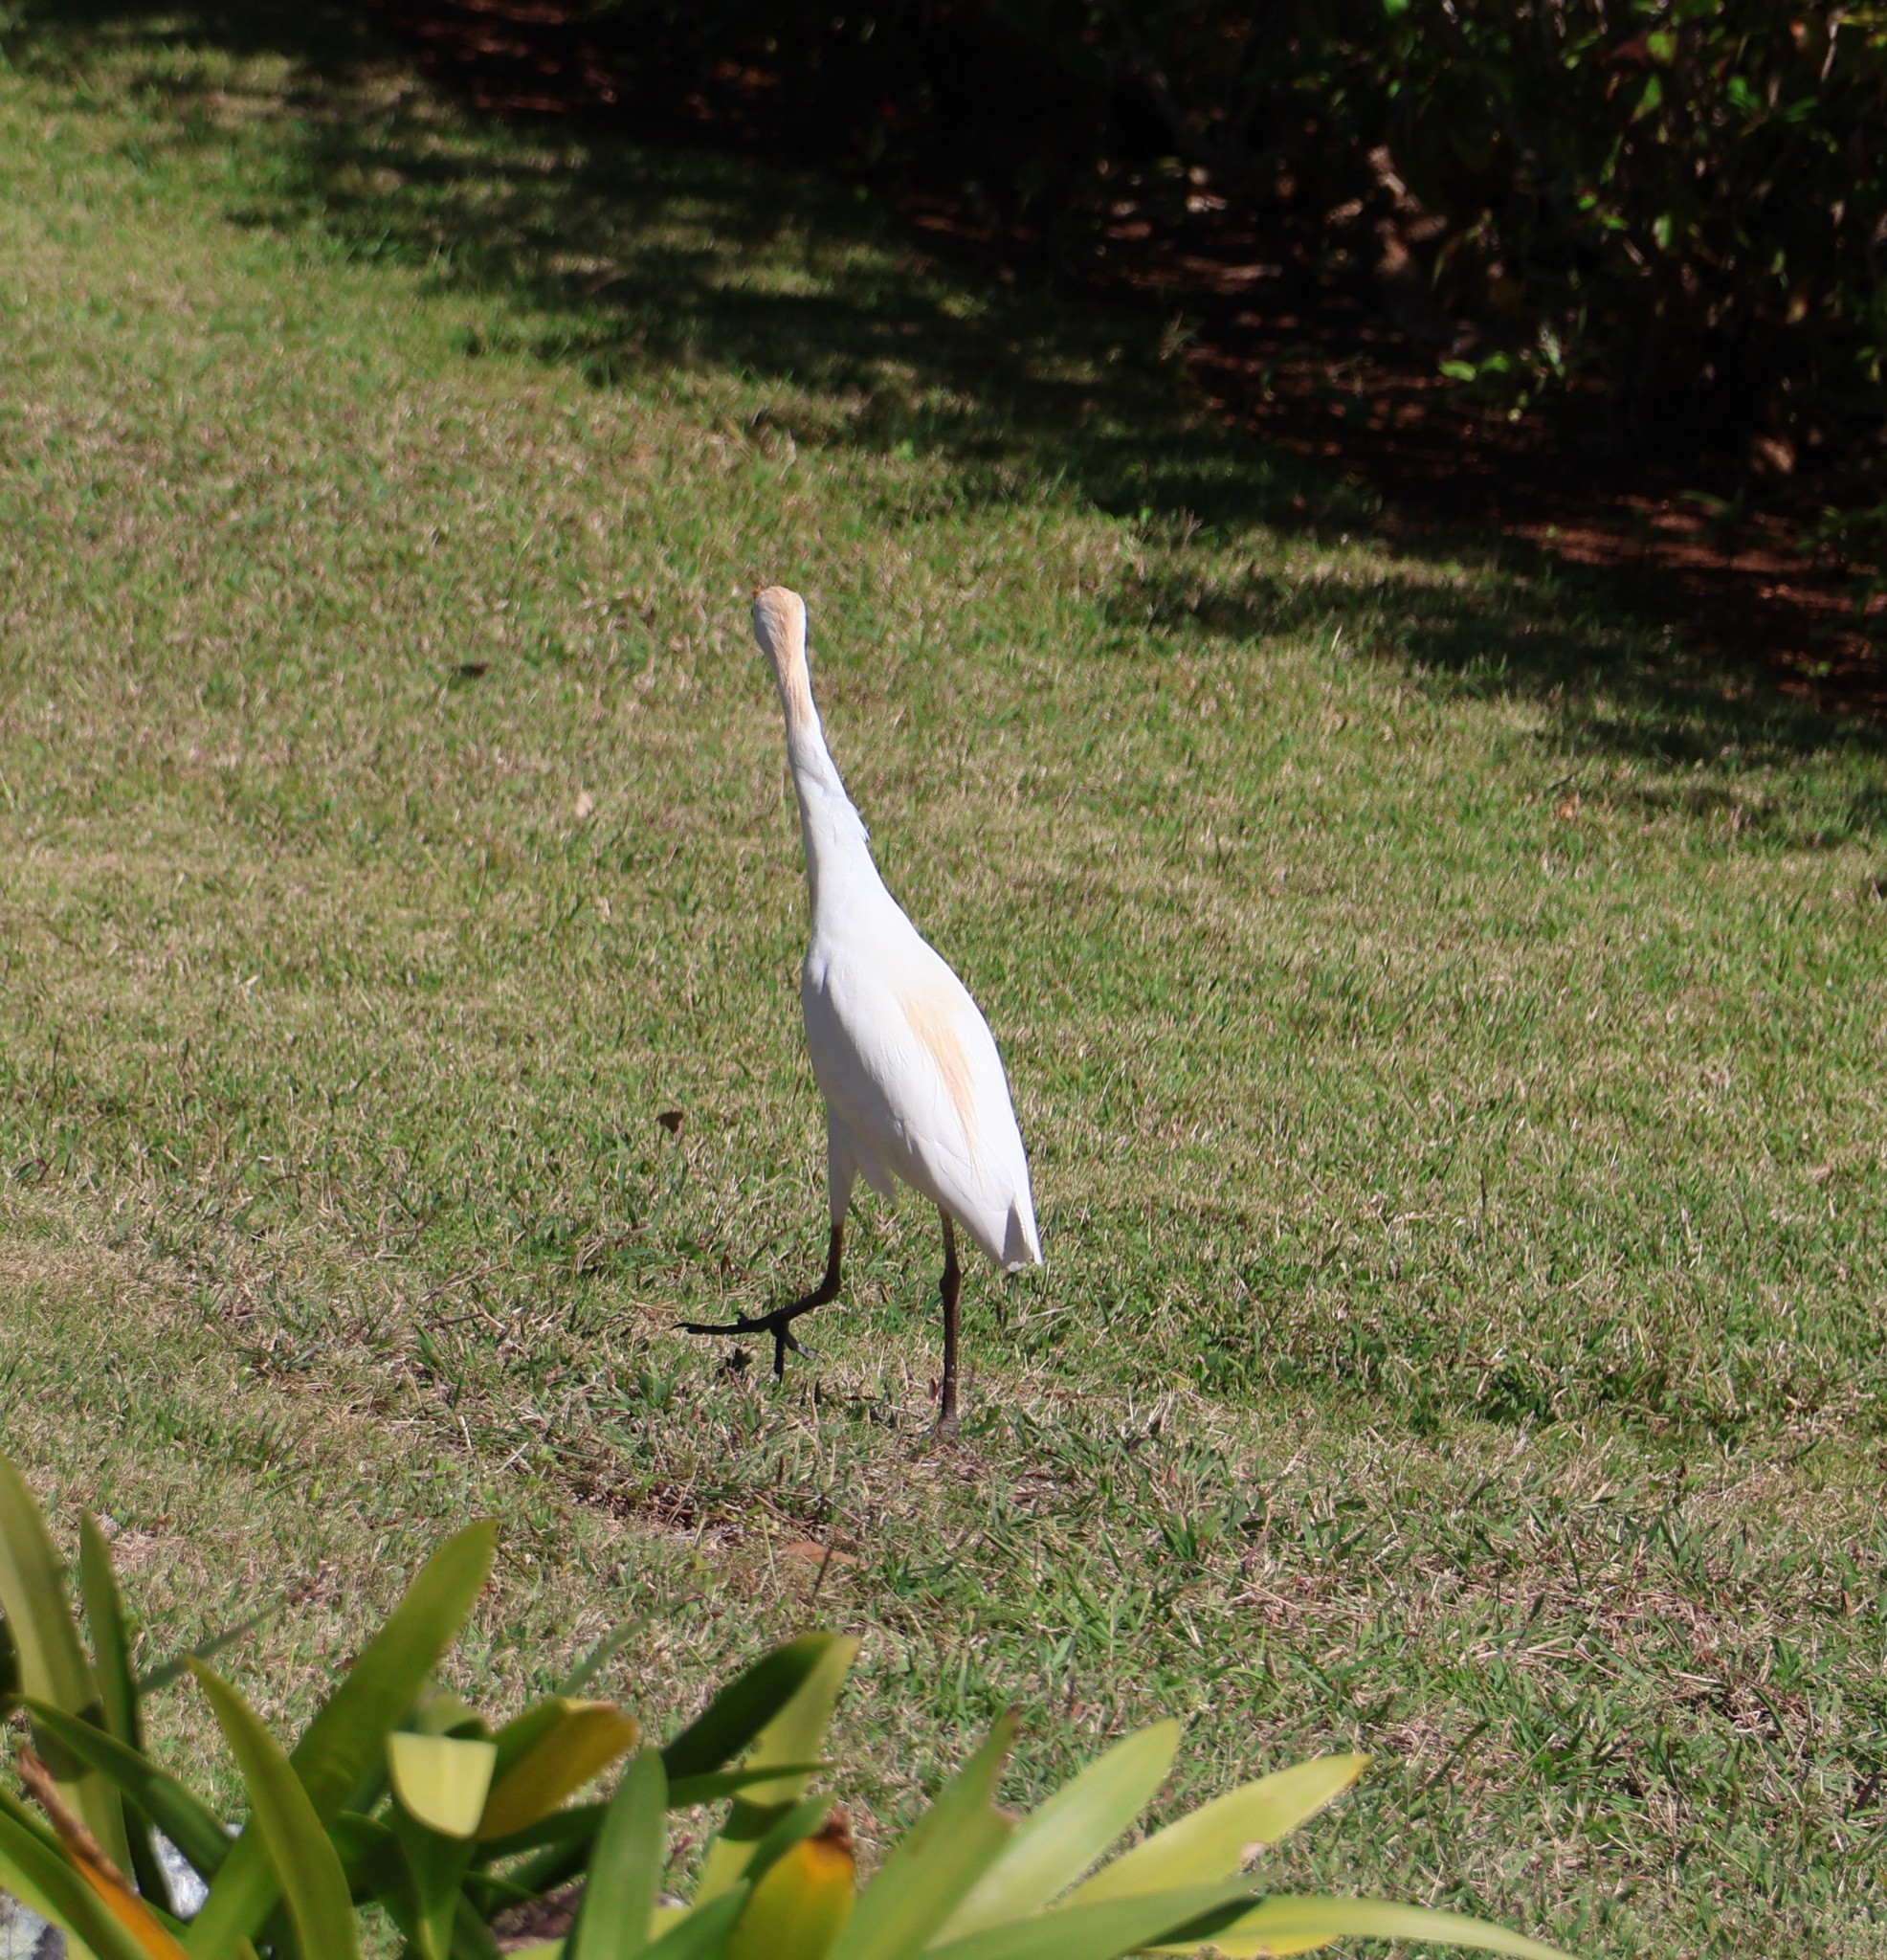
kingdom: Animalia
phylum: Chordata
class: Aves
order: Pelecaniformes
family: Ardeidae
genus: Bubulcus
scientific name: Bubulcus ibis
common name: Cattle egret
